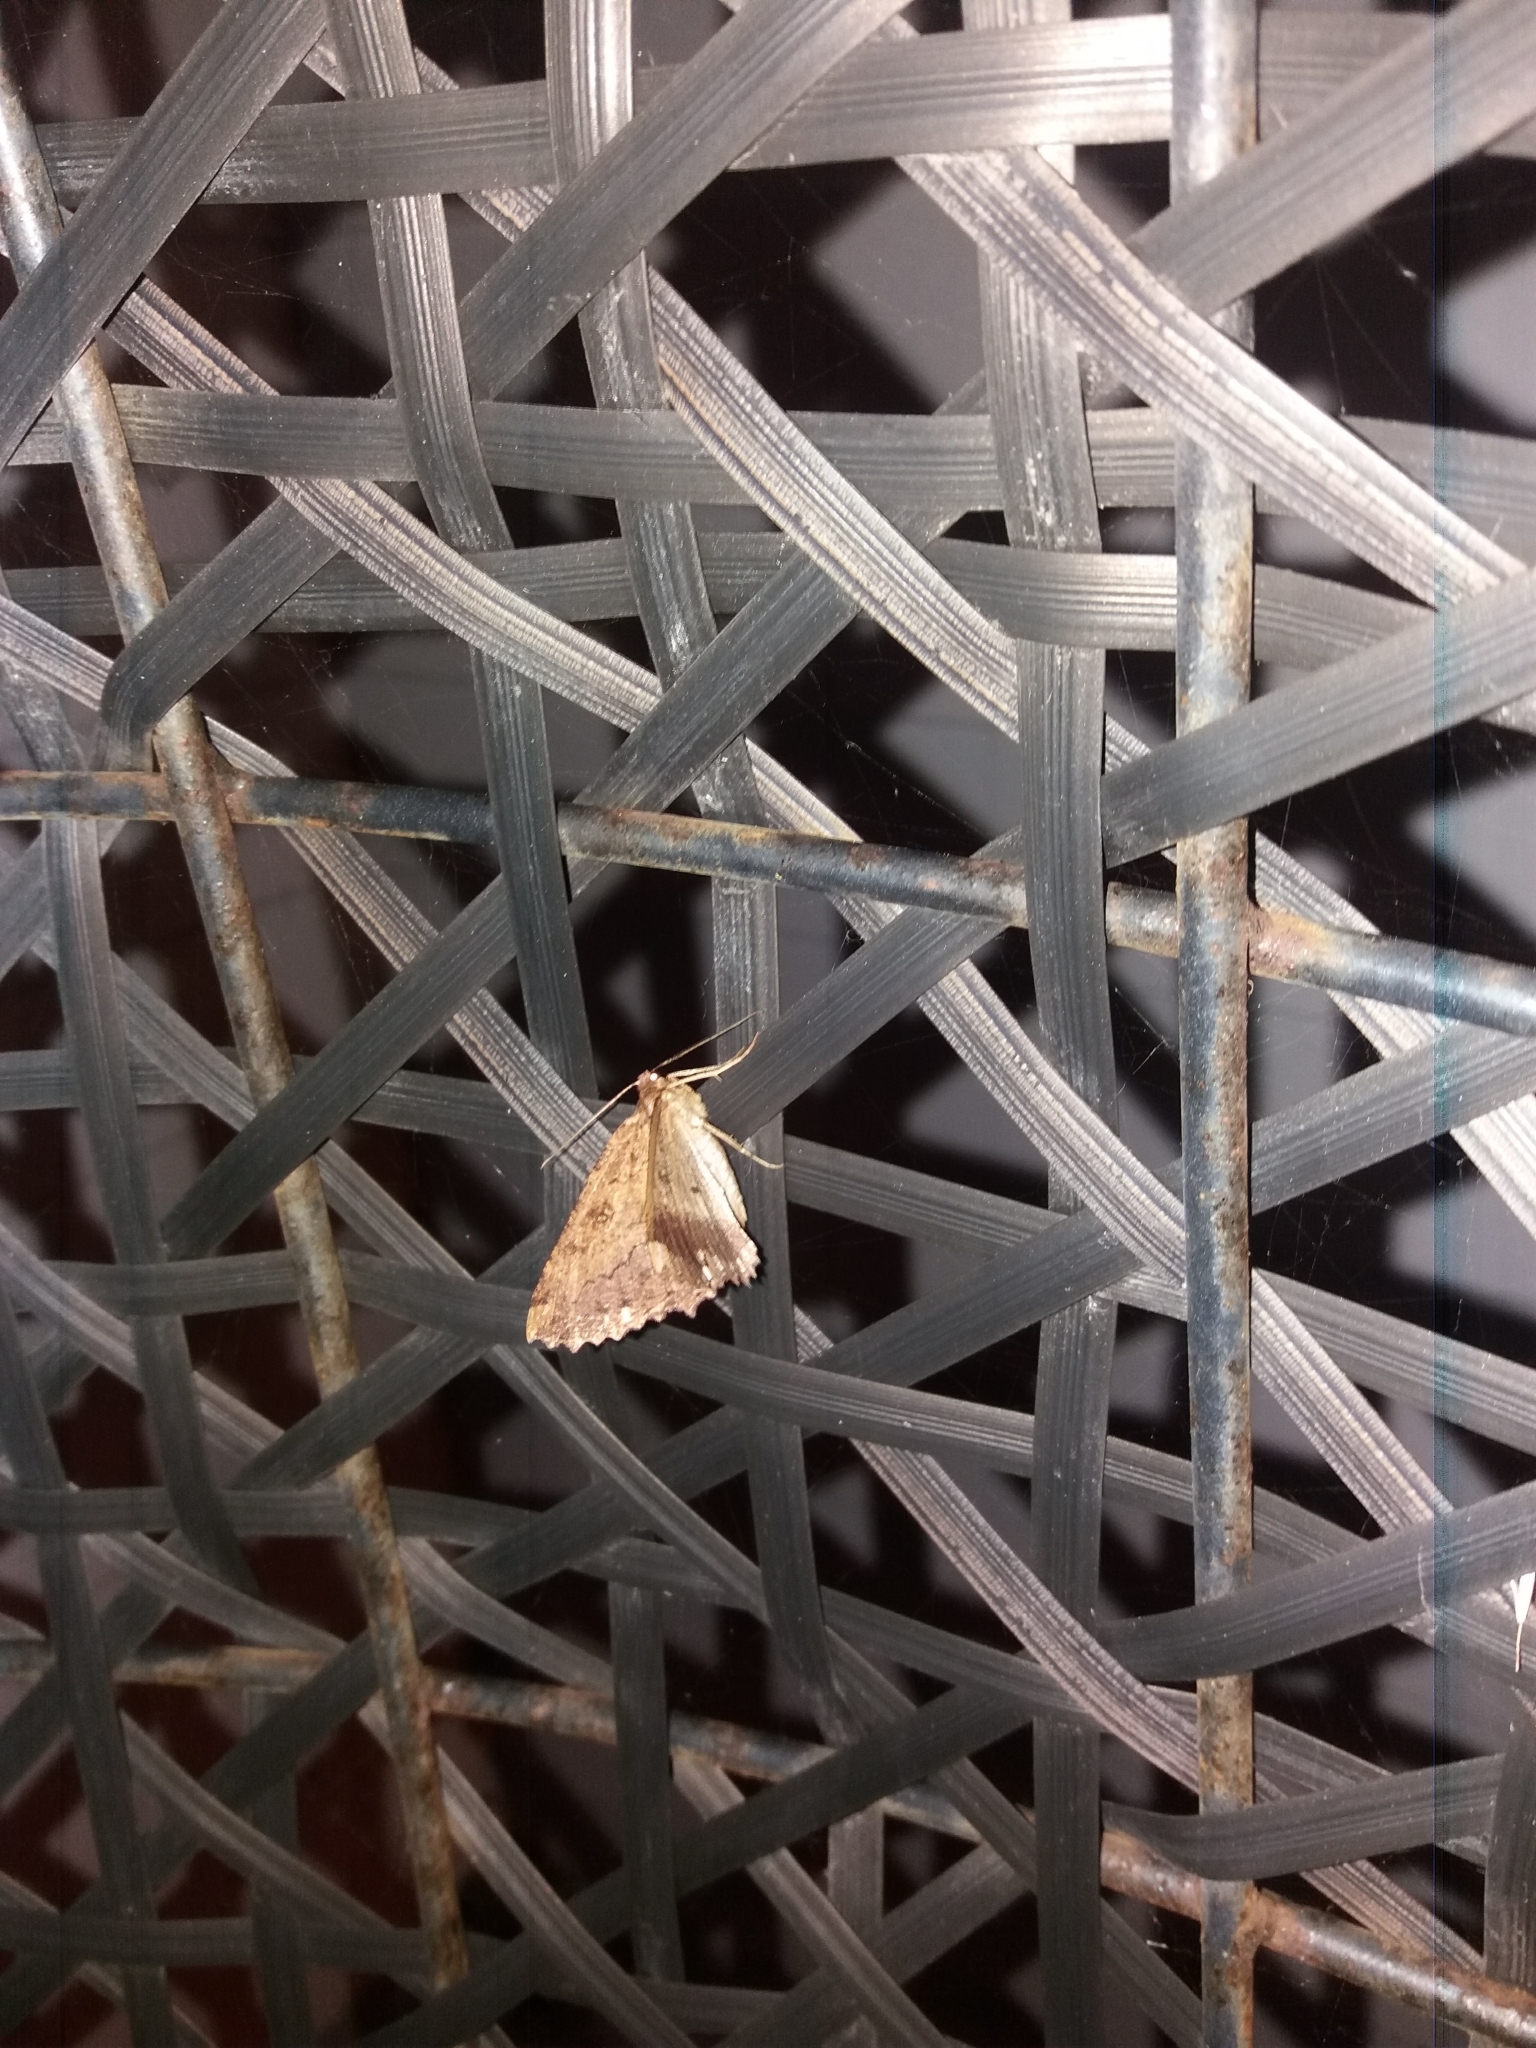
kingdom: Animalia
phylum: Arthropoda
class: Insecta
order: Lepidoptera
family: Geometridae
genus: Gellonia
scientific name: Gellonia dejectaria
